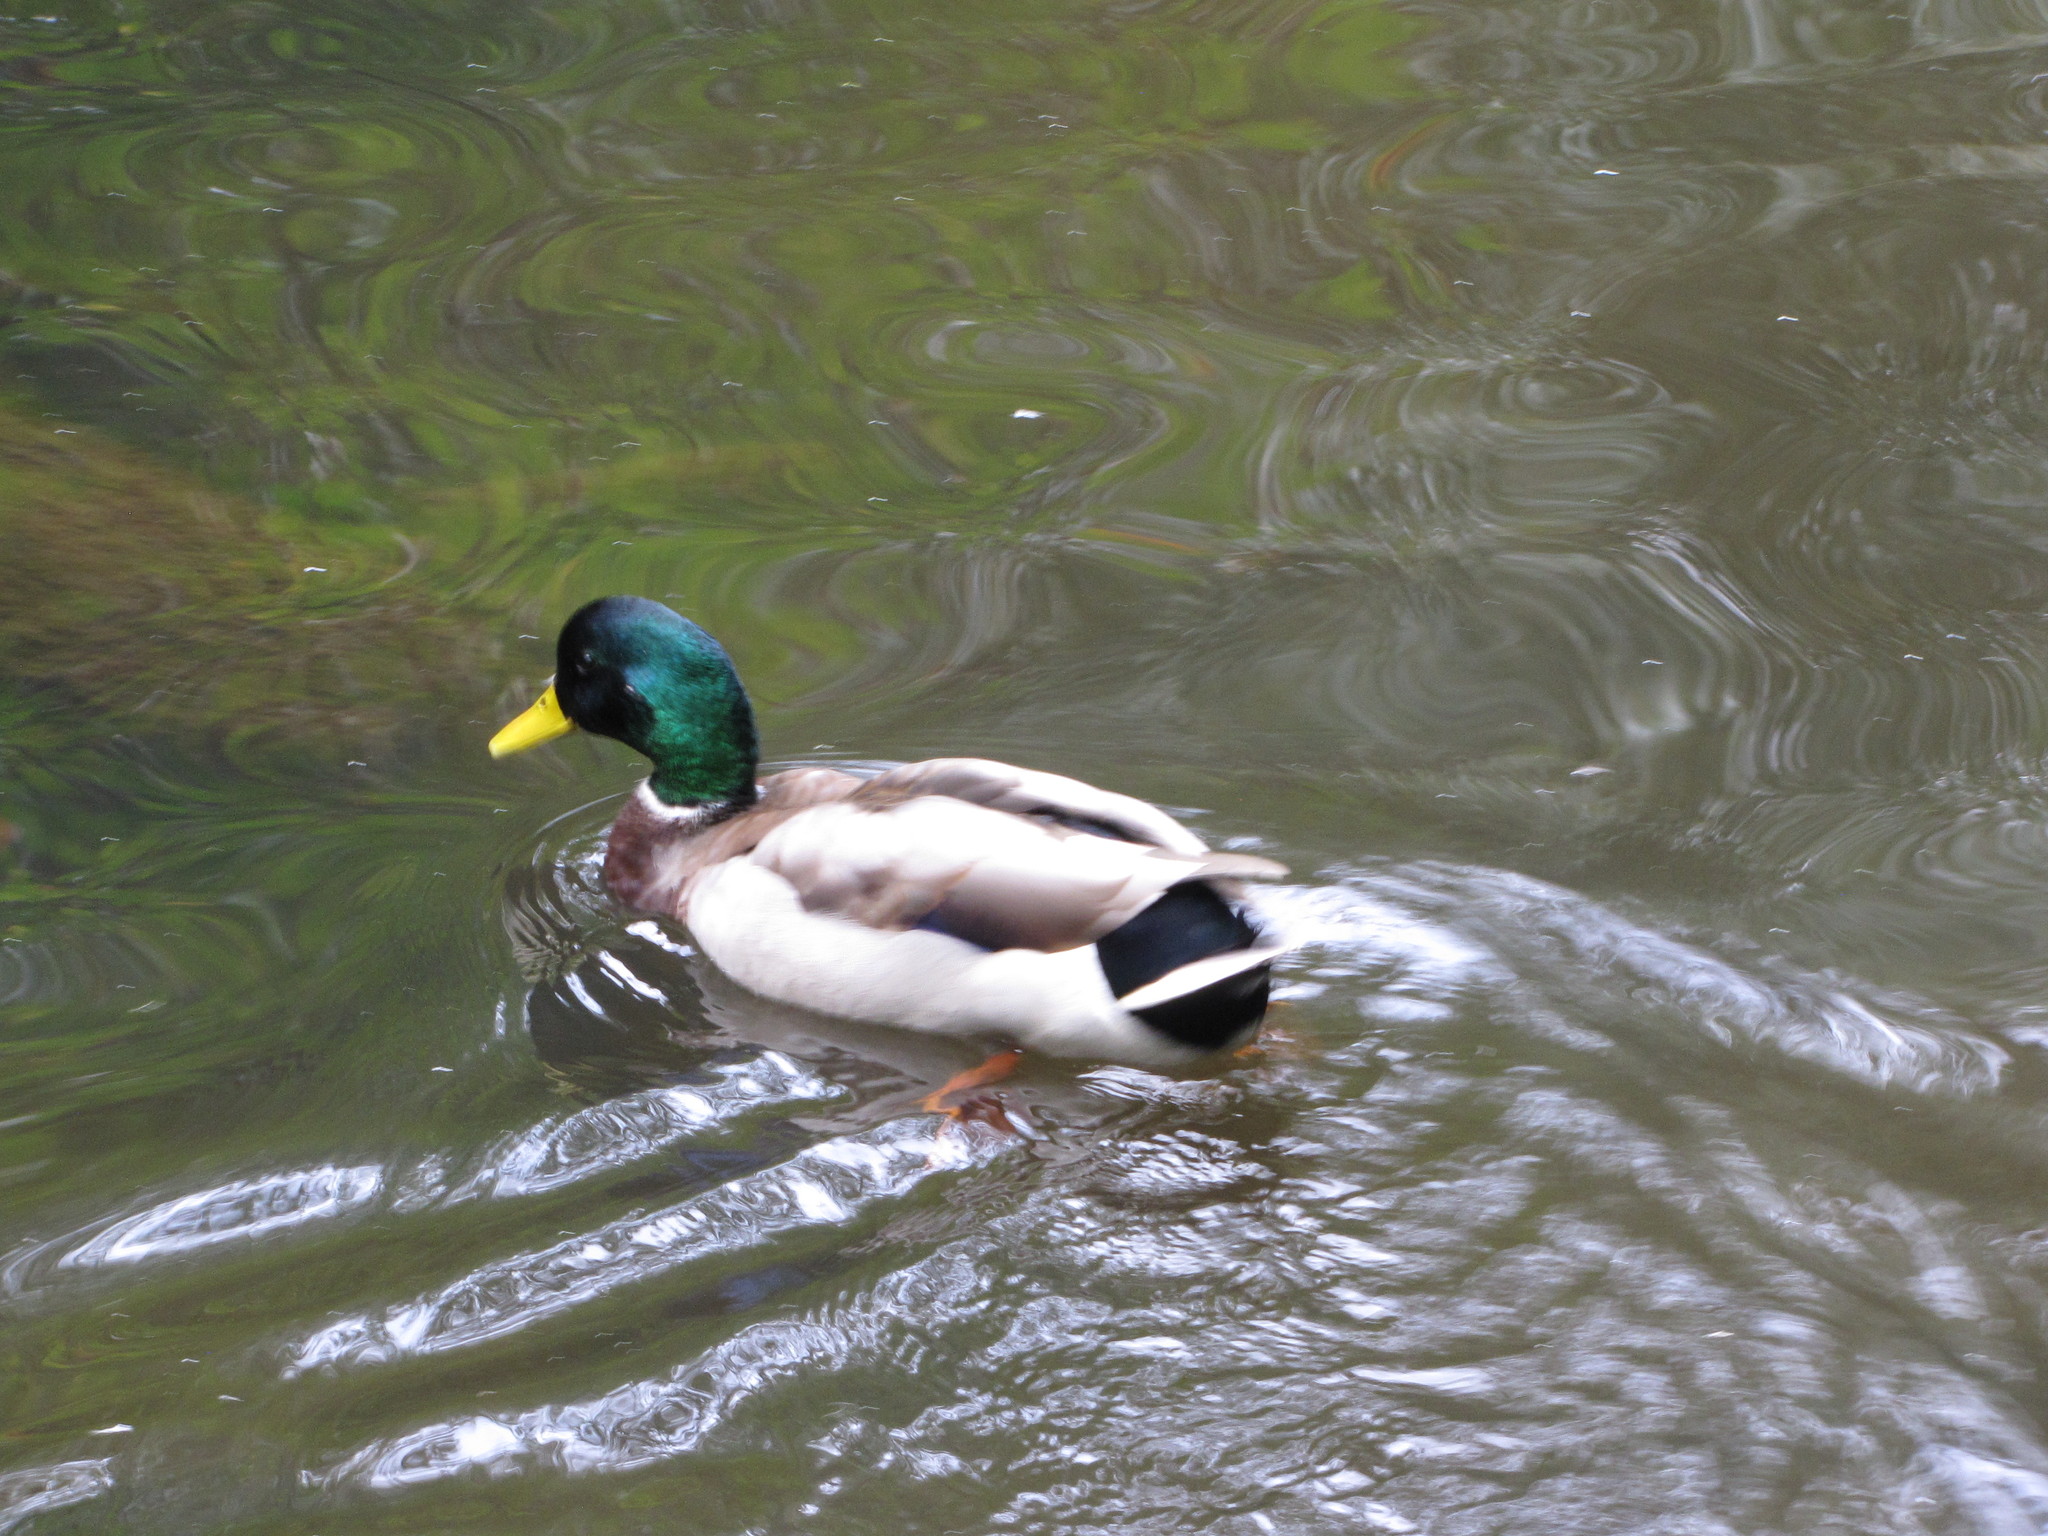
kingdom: Animalia
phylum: Chordata
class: Aves
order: Anseriformes
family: Anatidae
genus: Anas
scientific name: Anas platyrhynchos
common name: Mallard
